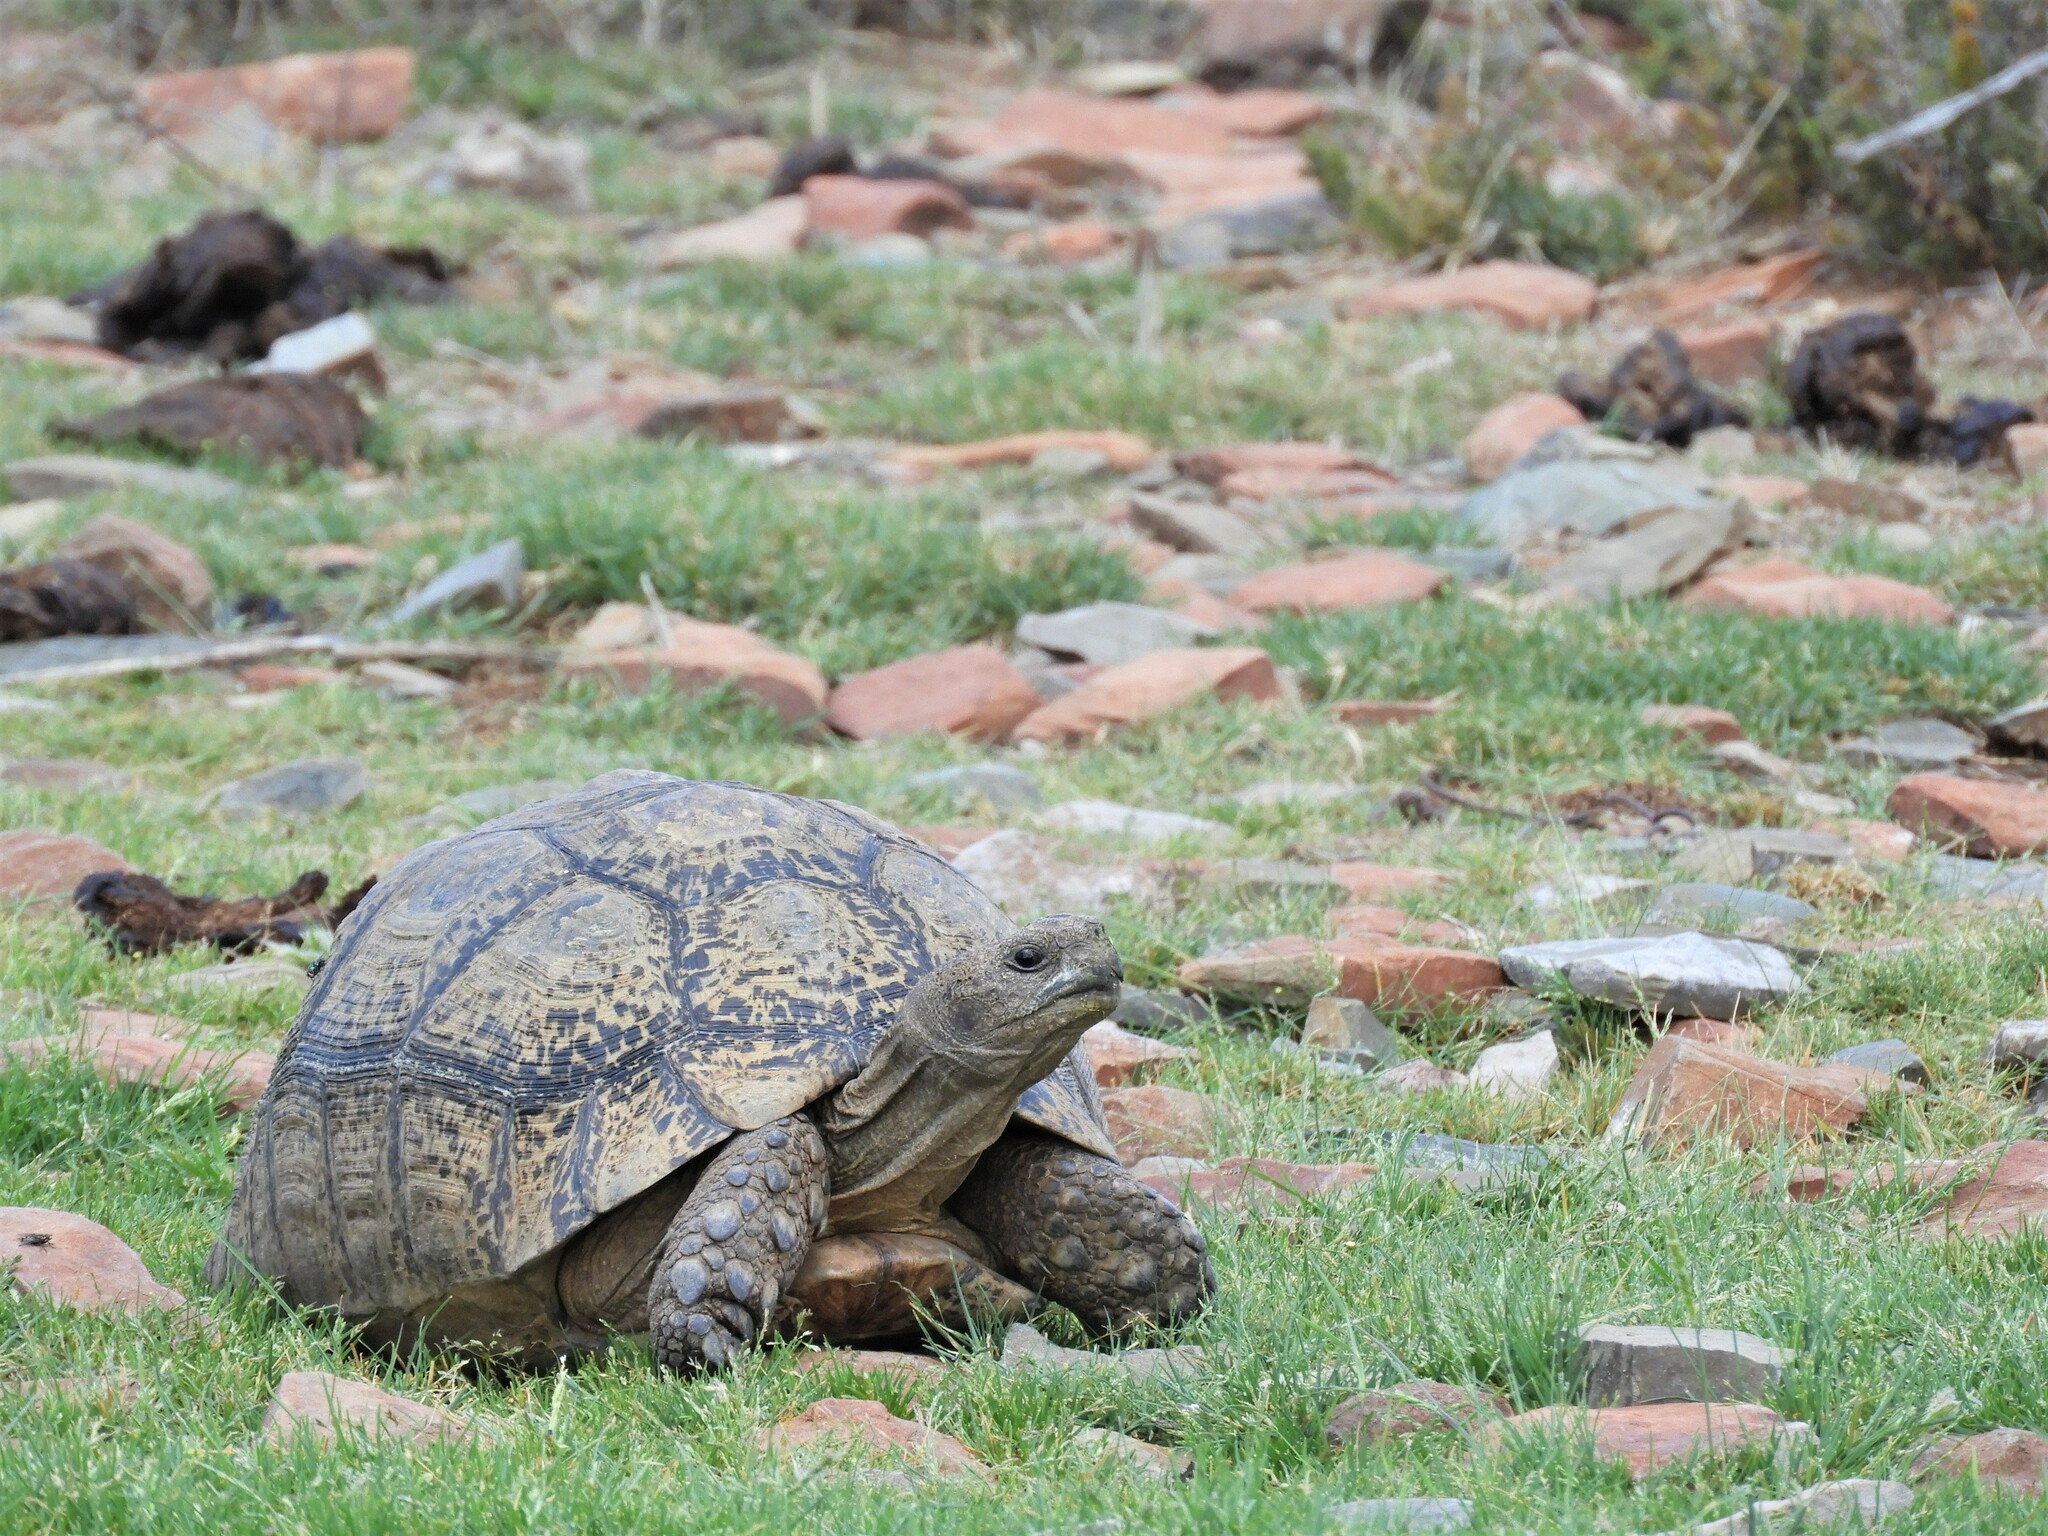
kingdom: Animalia
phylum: Chordata
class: Testudines
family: Testudinidae
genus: Stigmochelys
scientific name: Stigmochelys pardalis
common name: Leopard tortoise
